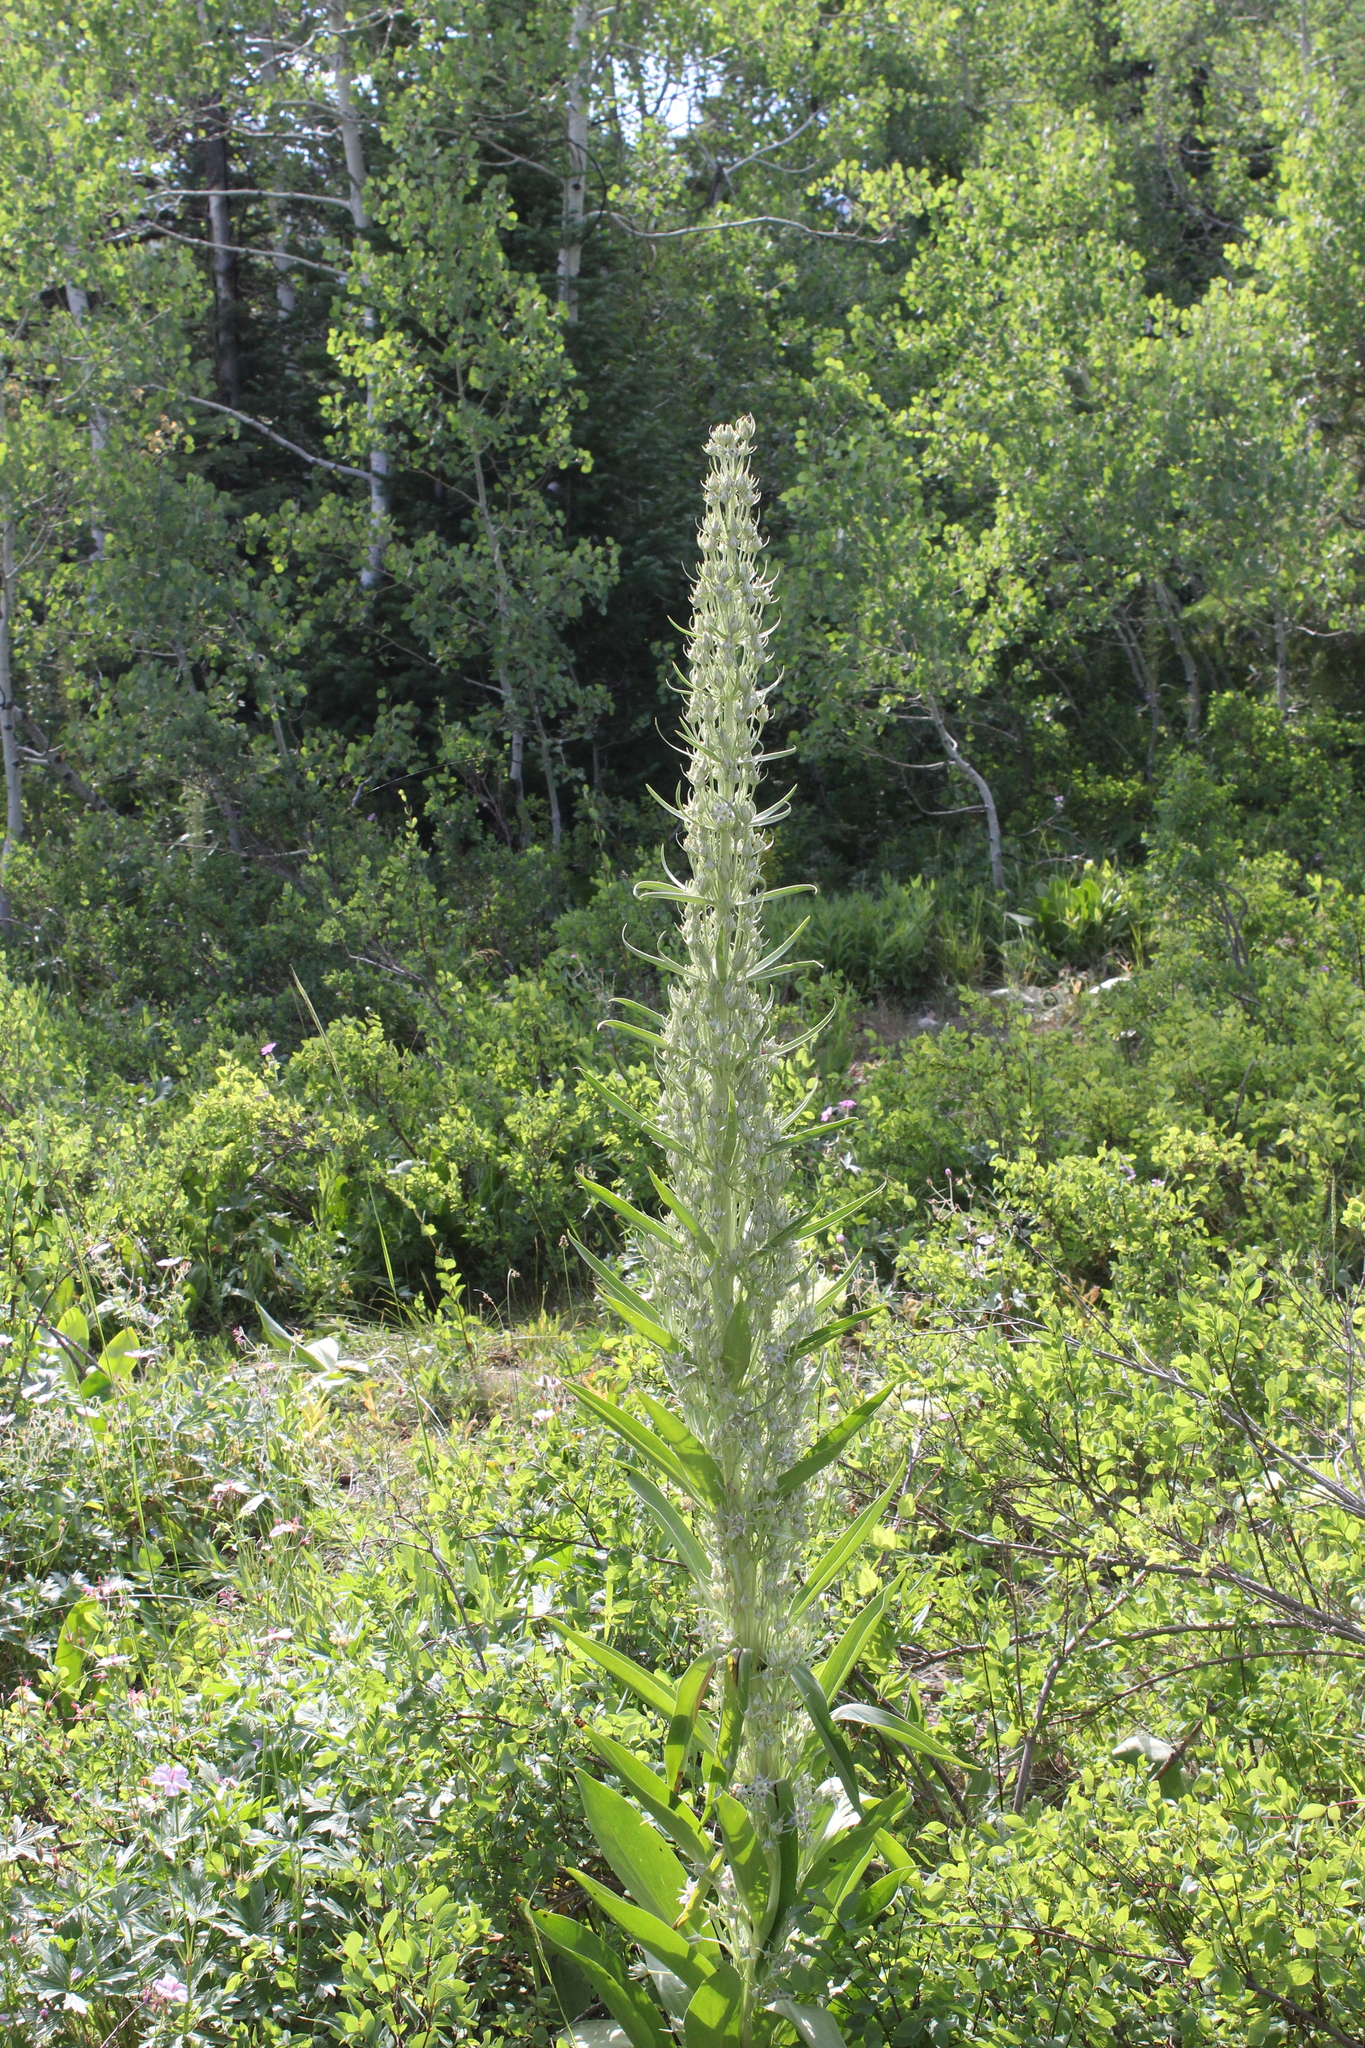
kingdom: Plantae
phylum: Tracheophyta
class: Magnoliopsida
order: Gentianales
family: Gentianaceae
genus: Frasera
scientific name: Frasera speciosa
